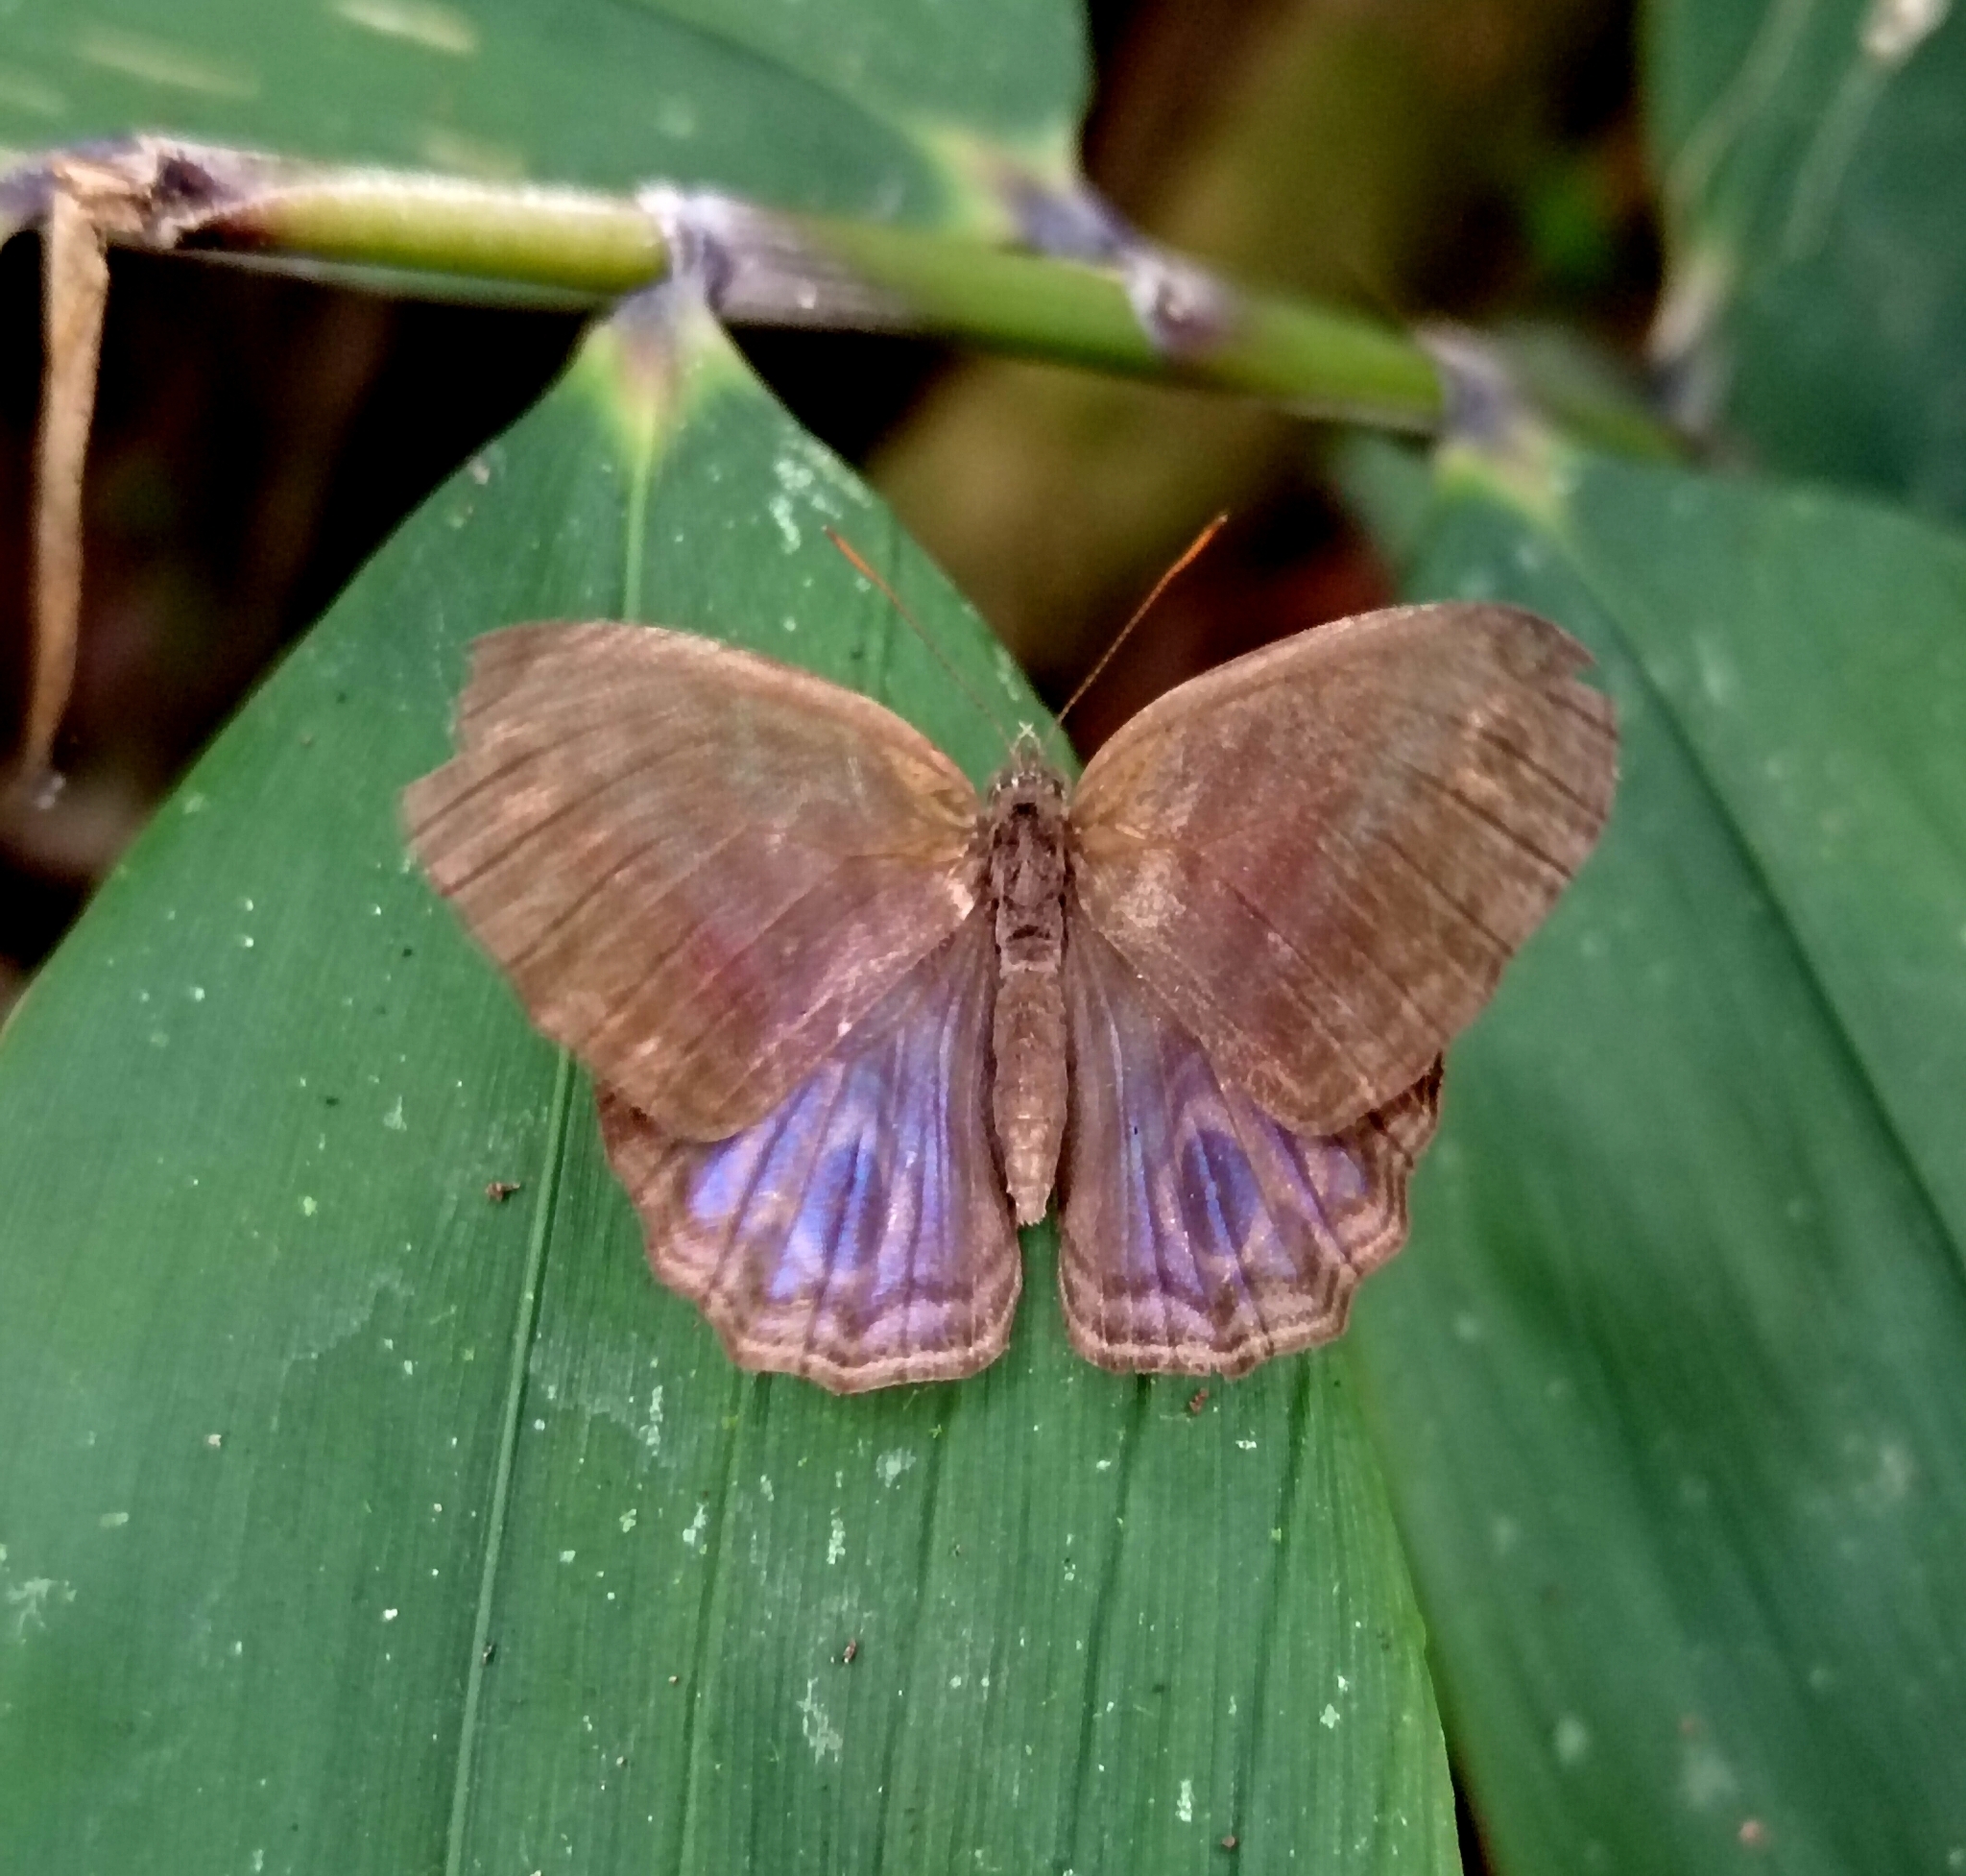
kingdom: Animalia
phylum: Arthropoda
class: Insecta
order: Lepidoptera
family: Nymphalidae
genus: Chloreuptychia
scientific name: Chloreuptychia chloris
